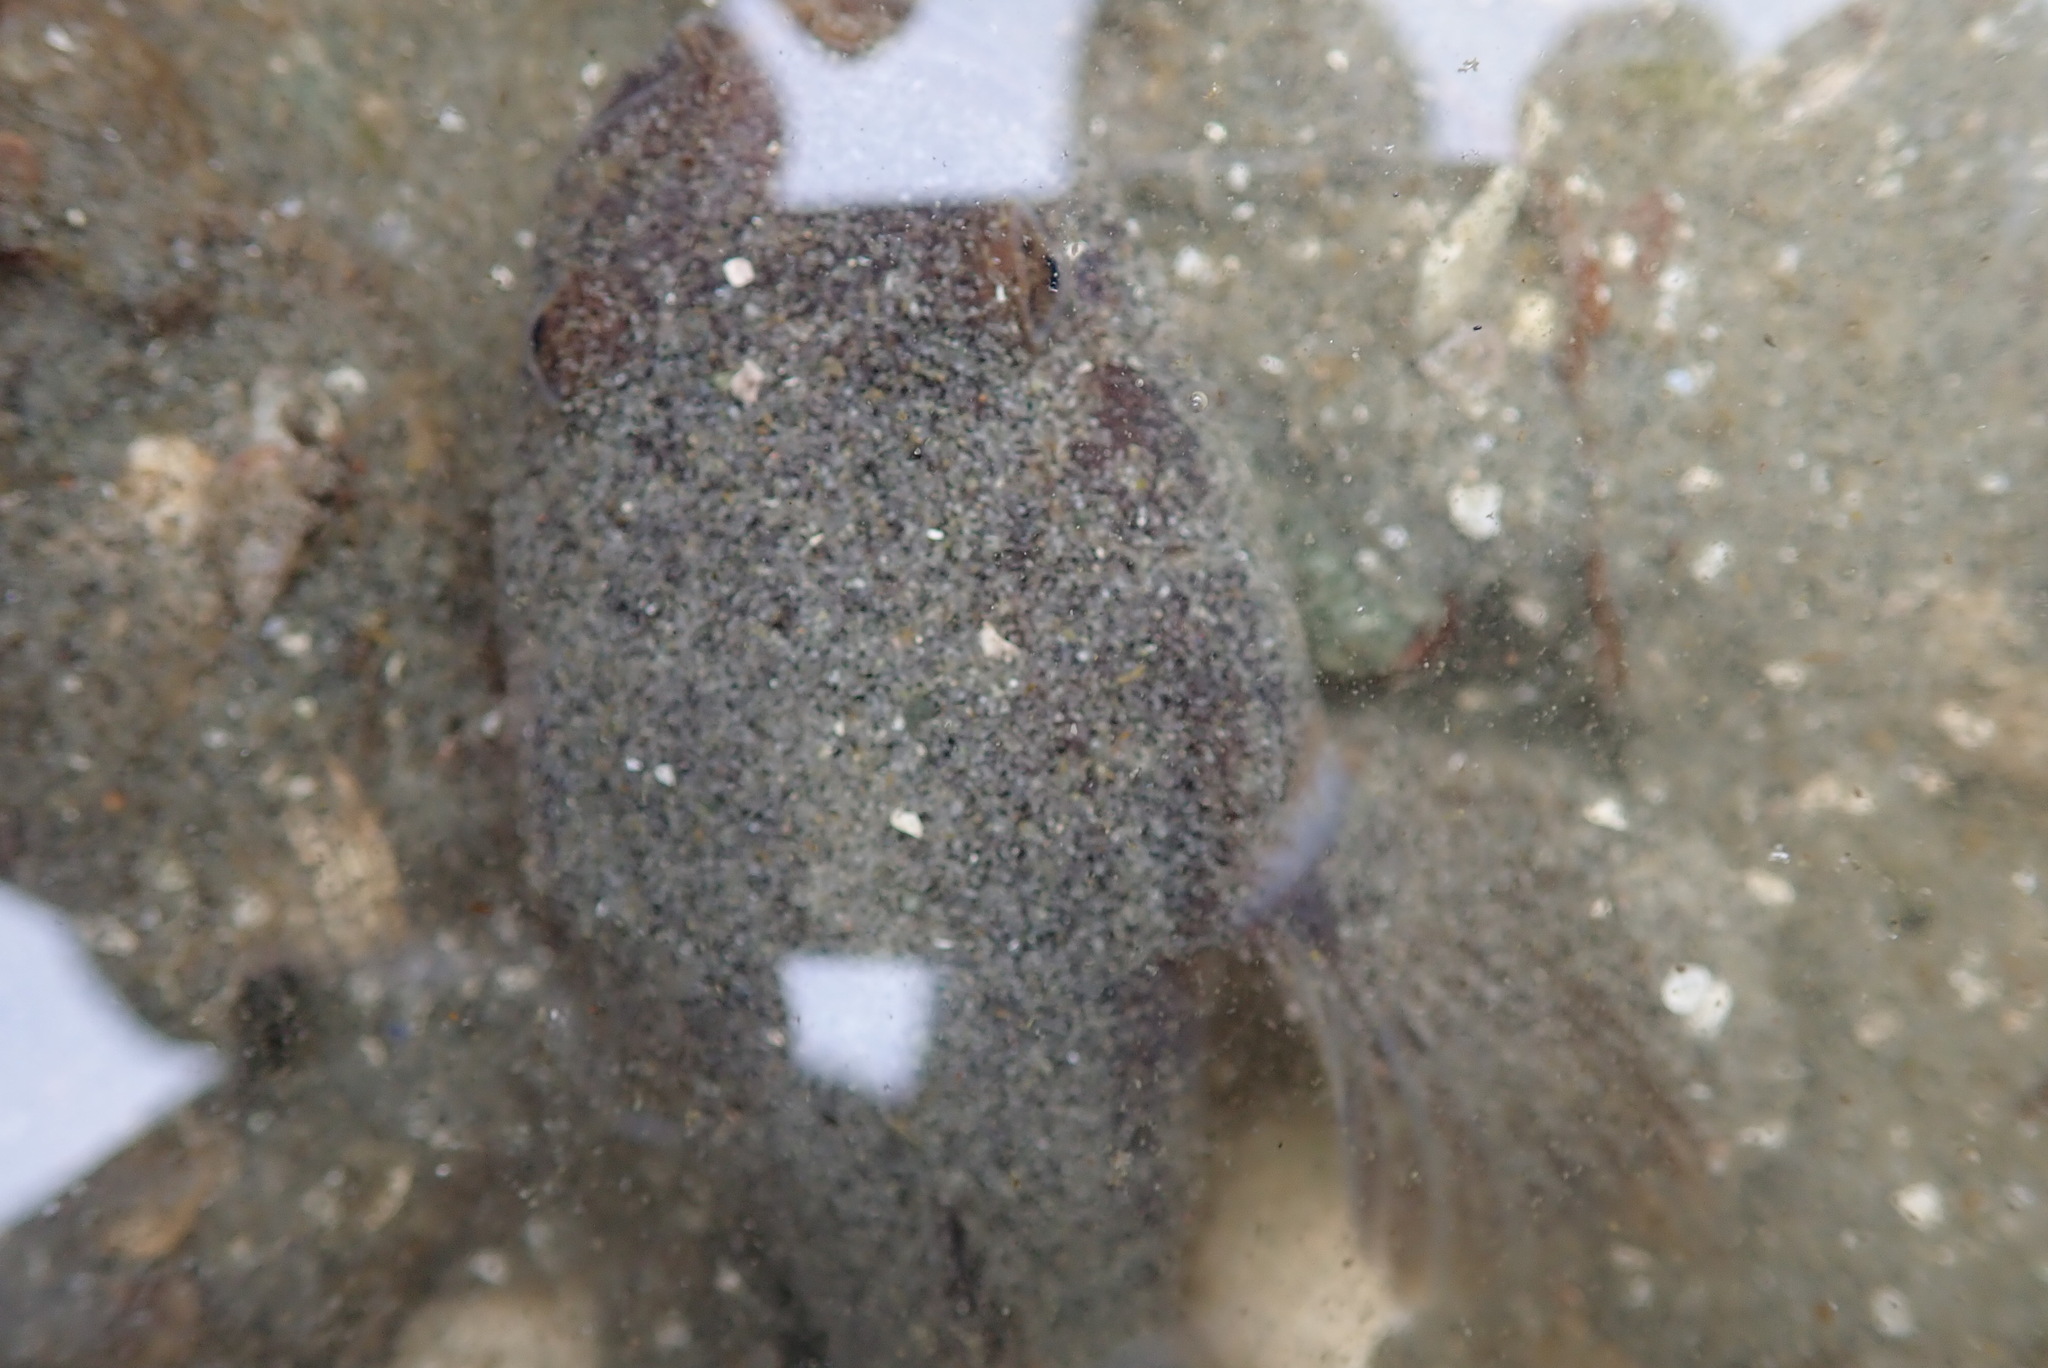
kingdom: Animalia
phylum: Chordata
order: Batrachoidiformes
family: Batrachoididae
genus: Porichthys
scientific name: Porichthys notatus
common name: Plainfin midshipman
